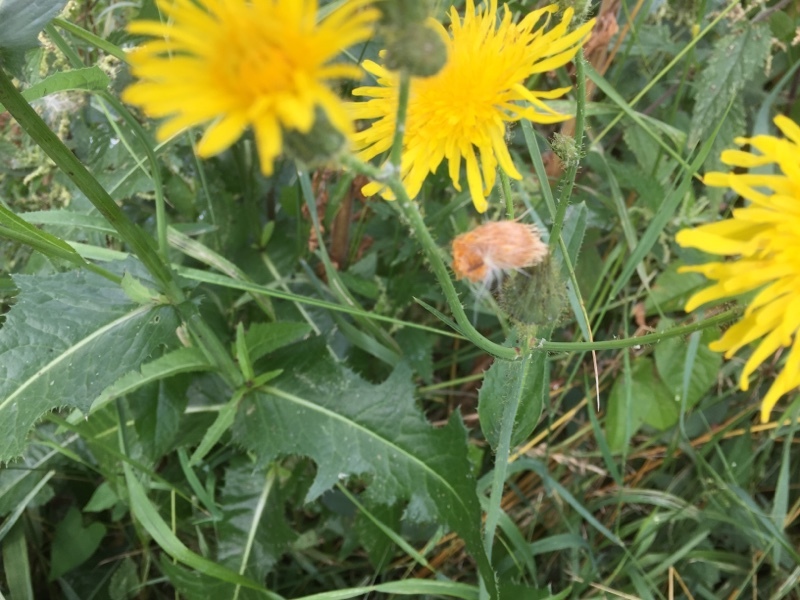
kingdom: Plantae
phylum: Tracheophyta
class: Magnoliopsida
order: Asterales
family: Asteraceae
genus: Sonchus
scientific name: Sonchus arvensis
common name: Perennial sow-thistle
